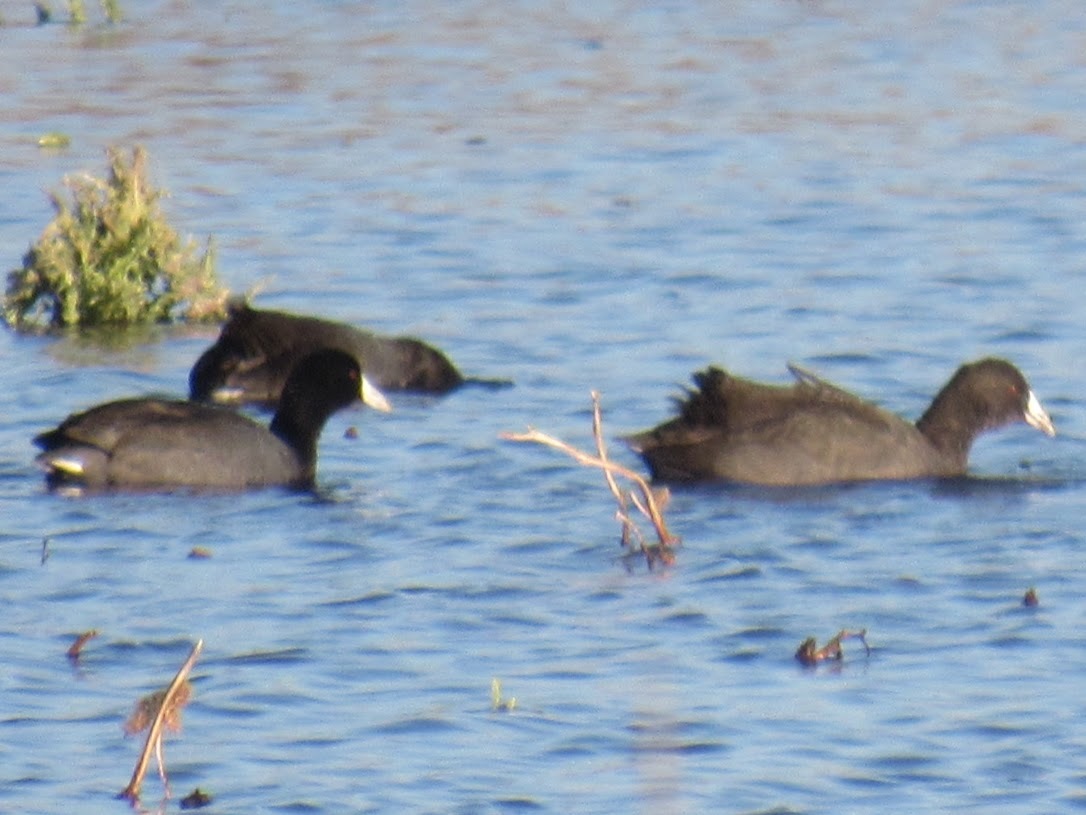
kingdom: Animalia
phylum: Chordata
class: Aves
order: Gruiformes
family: Rallidae
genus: Fulica
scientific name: Fulica americana
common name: American coot
